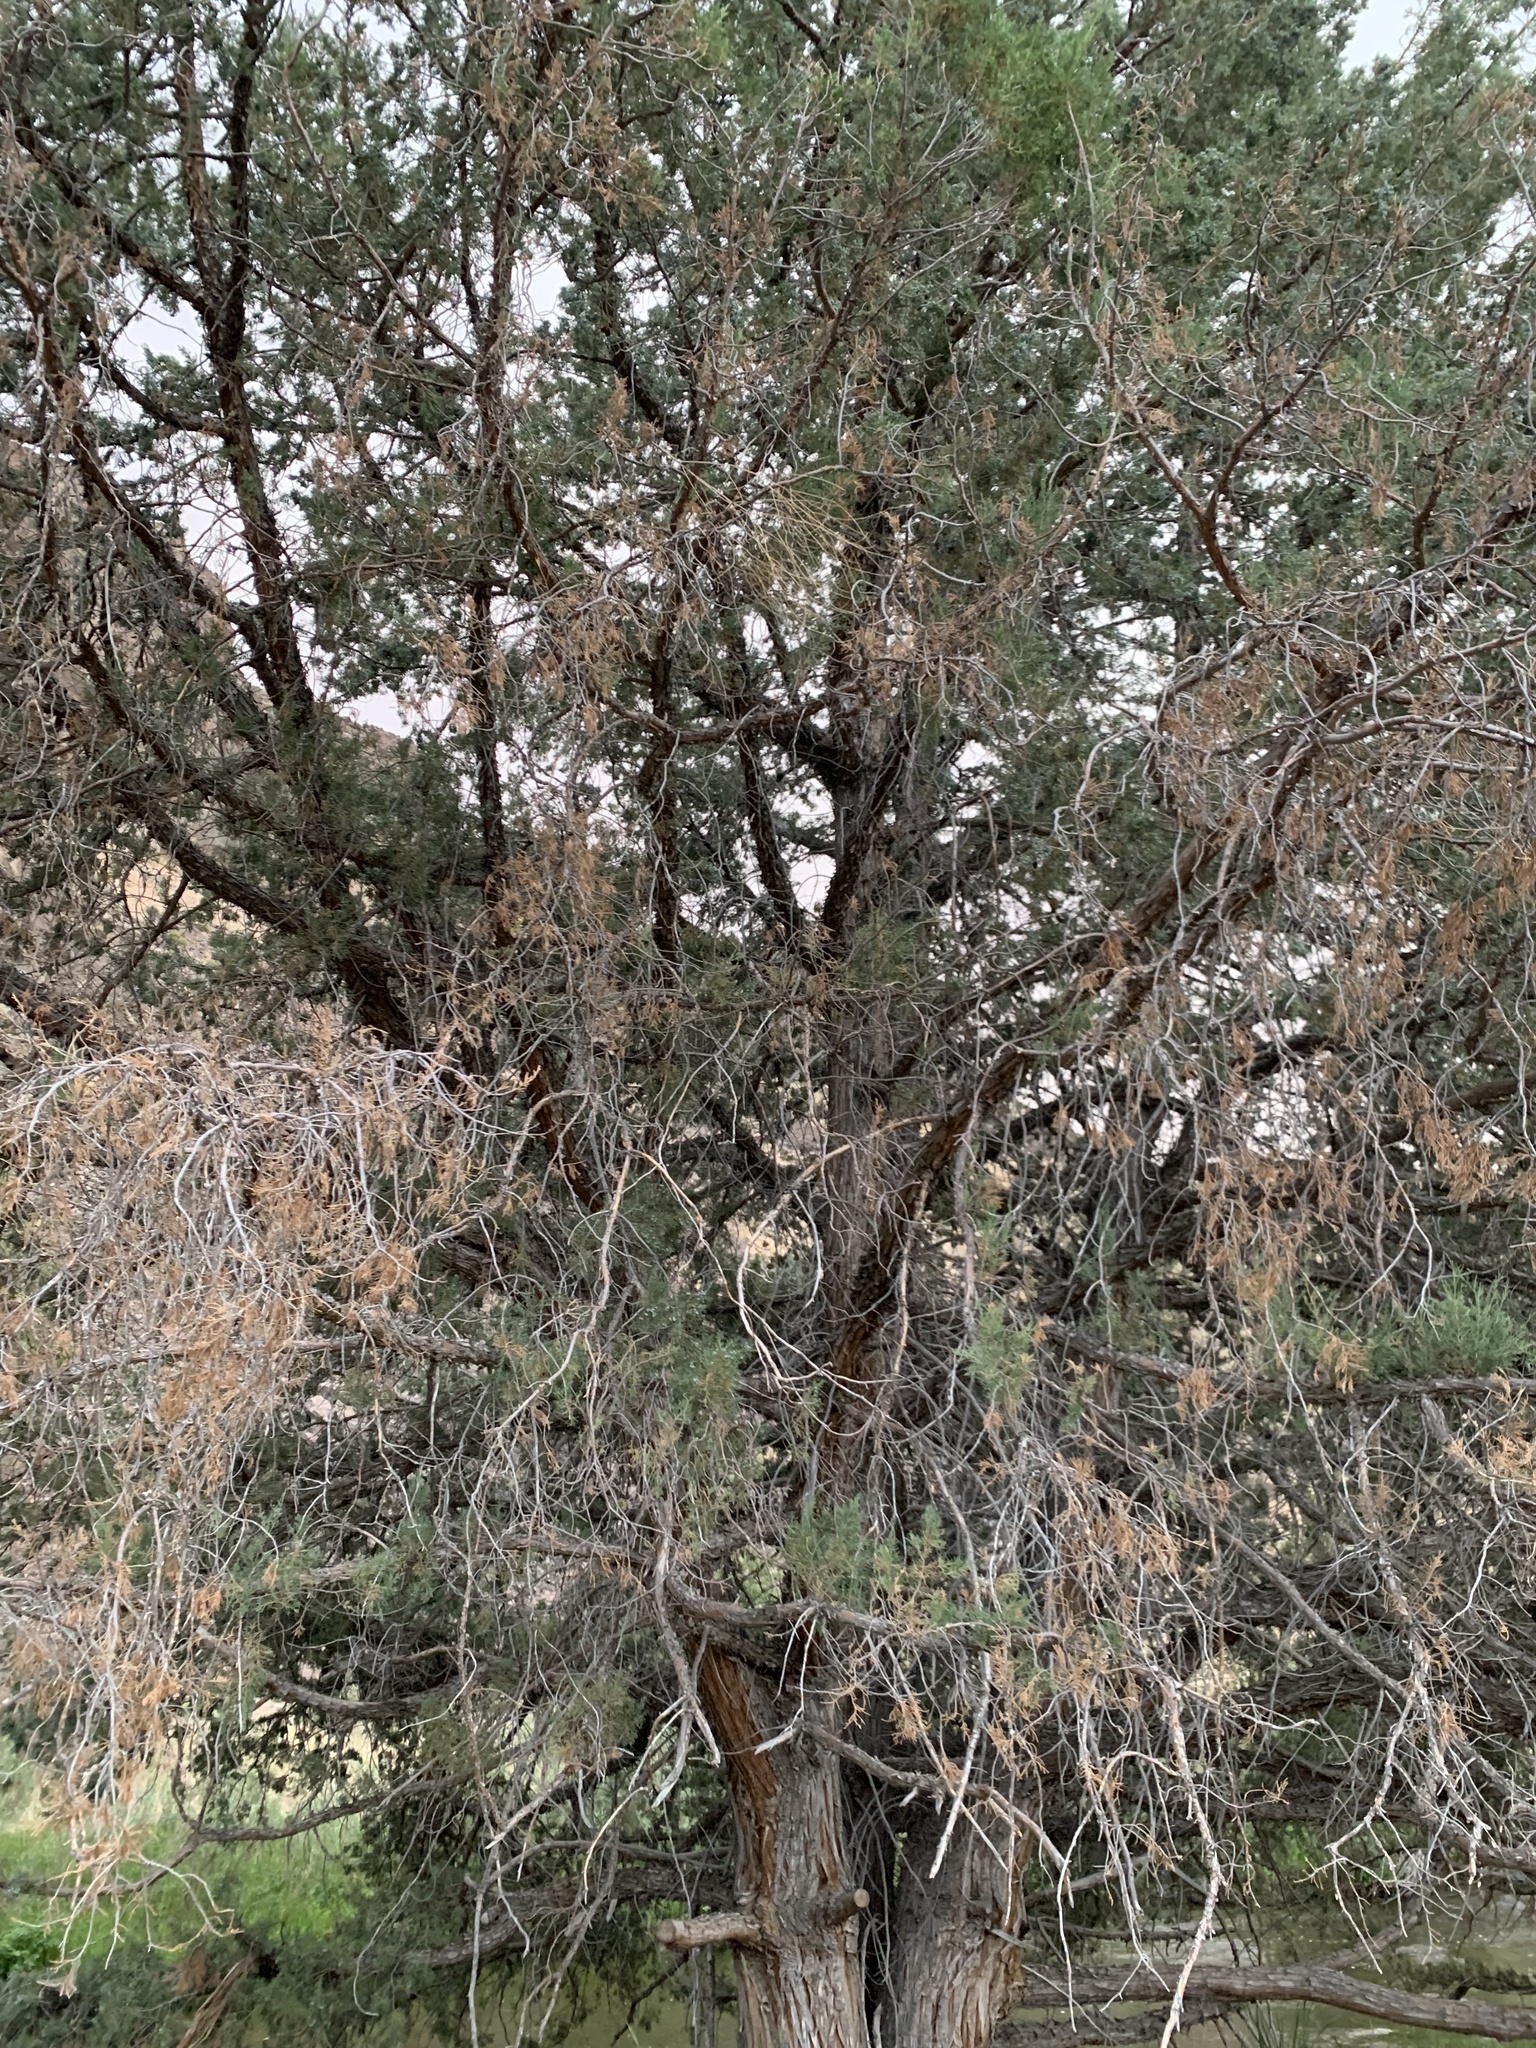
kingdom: Plantae
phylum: Tracheophyta
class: Pinopsida
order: Pinales
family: Cupressaceae
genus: Juniperus
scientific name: Juniperus scopulorum
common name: Rocky mountain juniper
